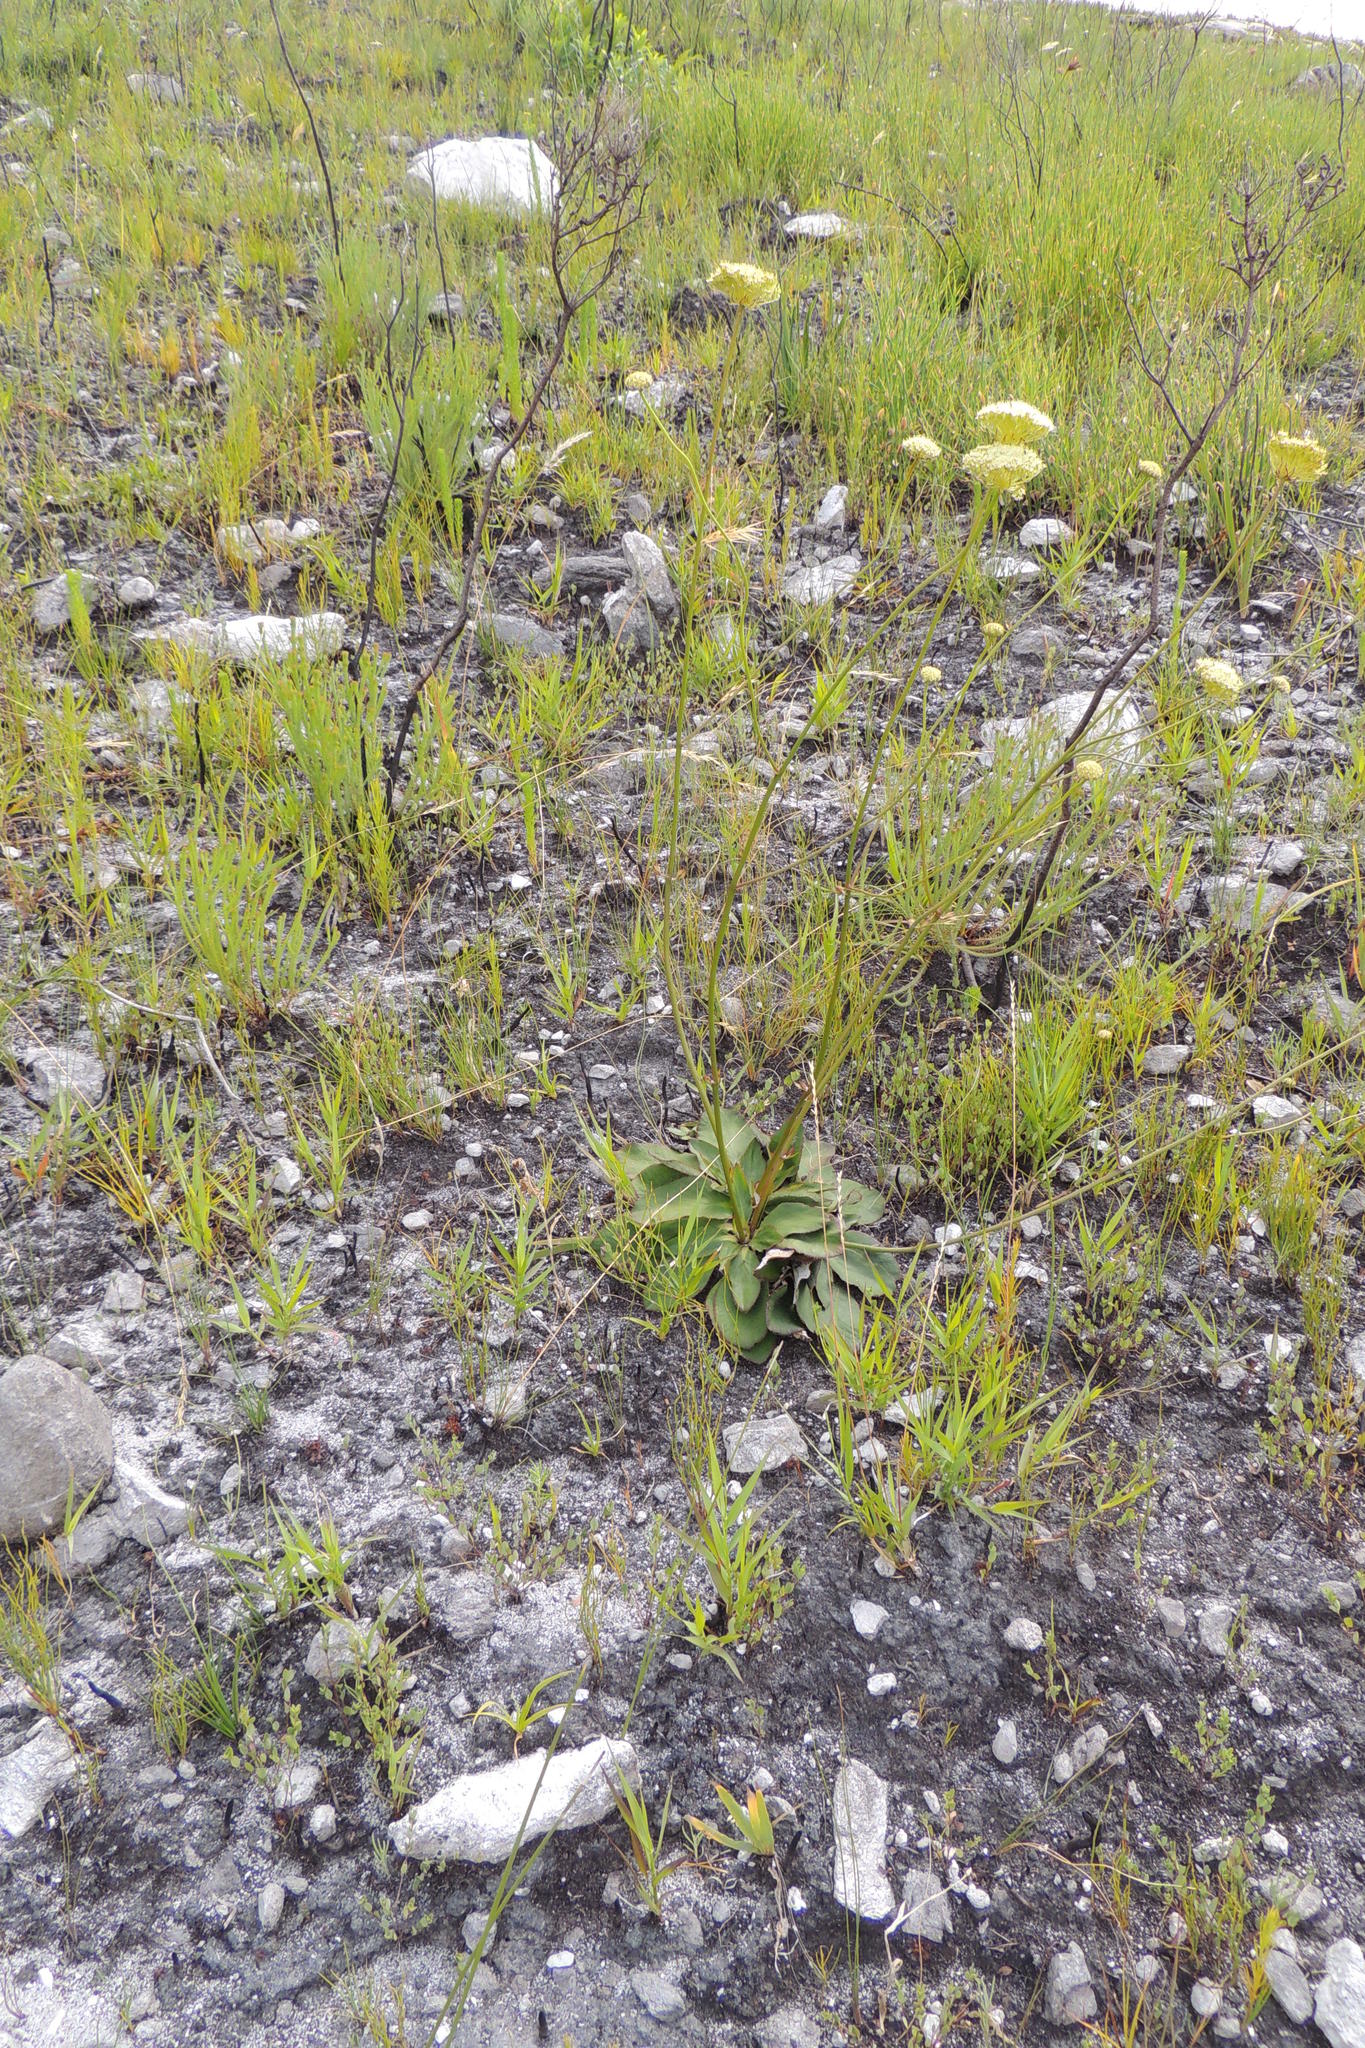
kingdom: Plantae
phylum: Tracheophyta
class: Magnoliopsida
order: Apiales
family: Apiaceae
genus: Hermas
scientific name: Hermas ciliata
